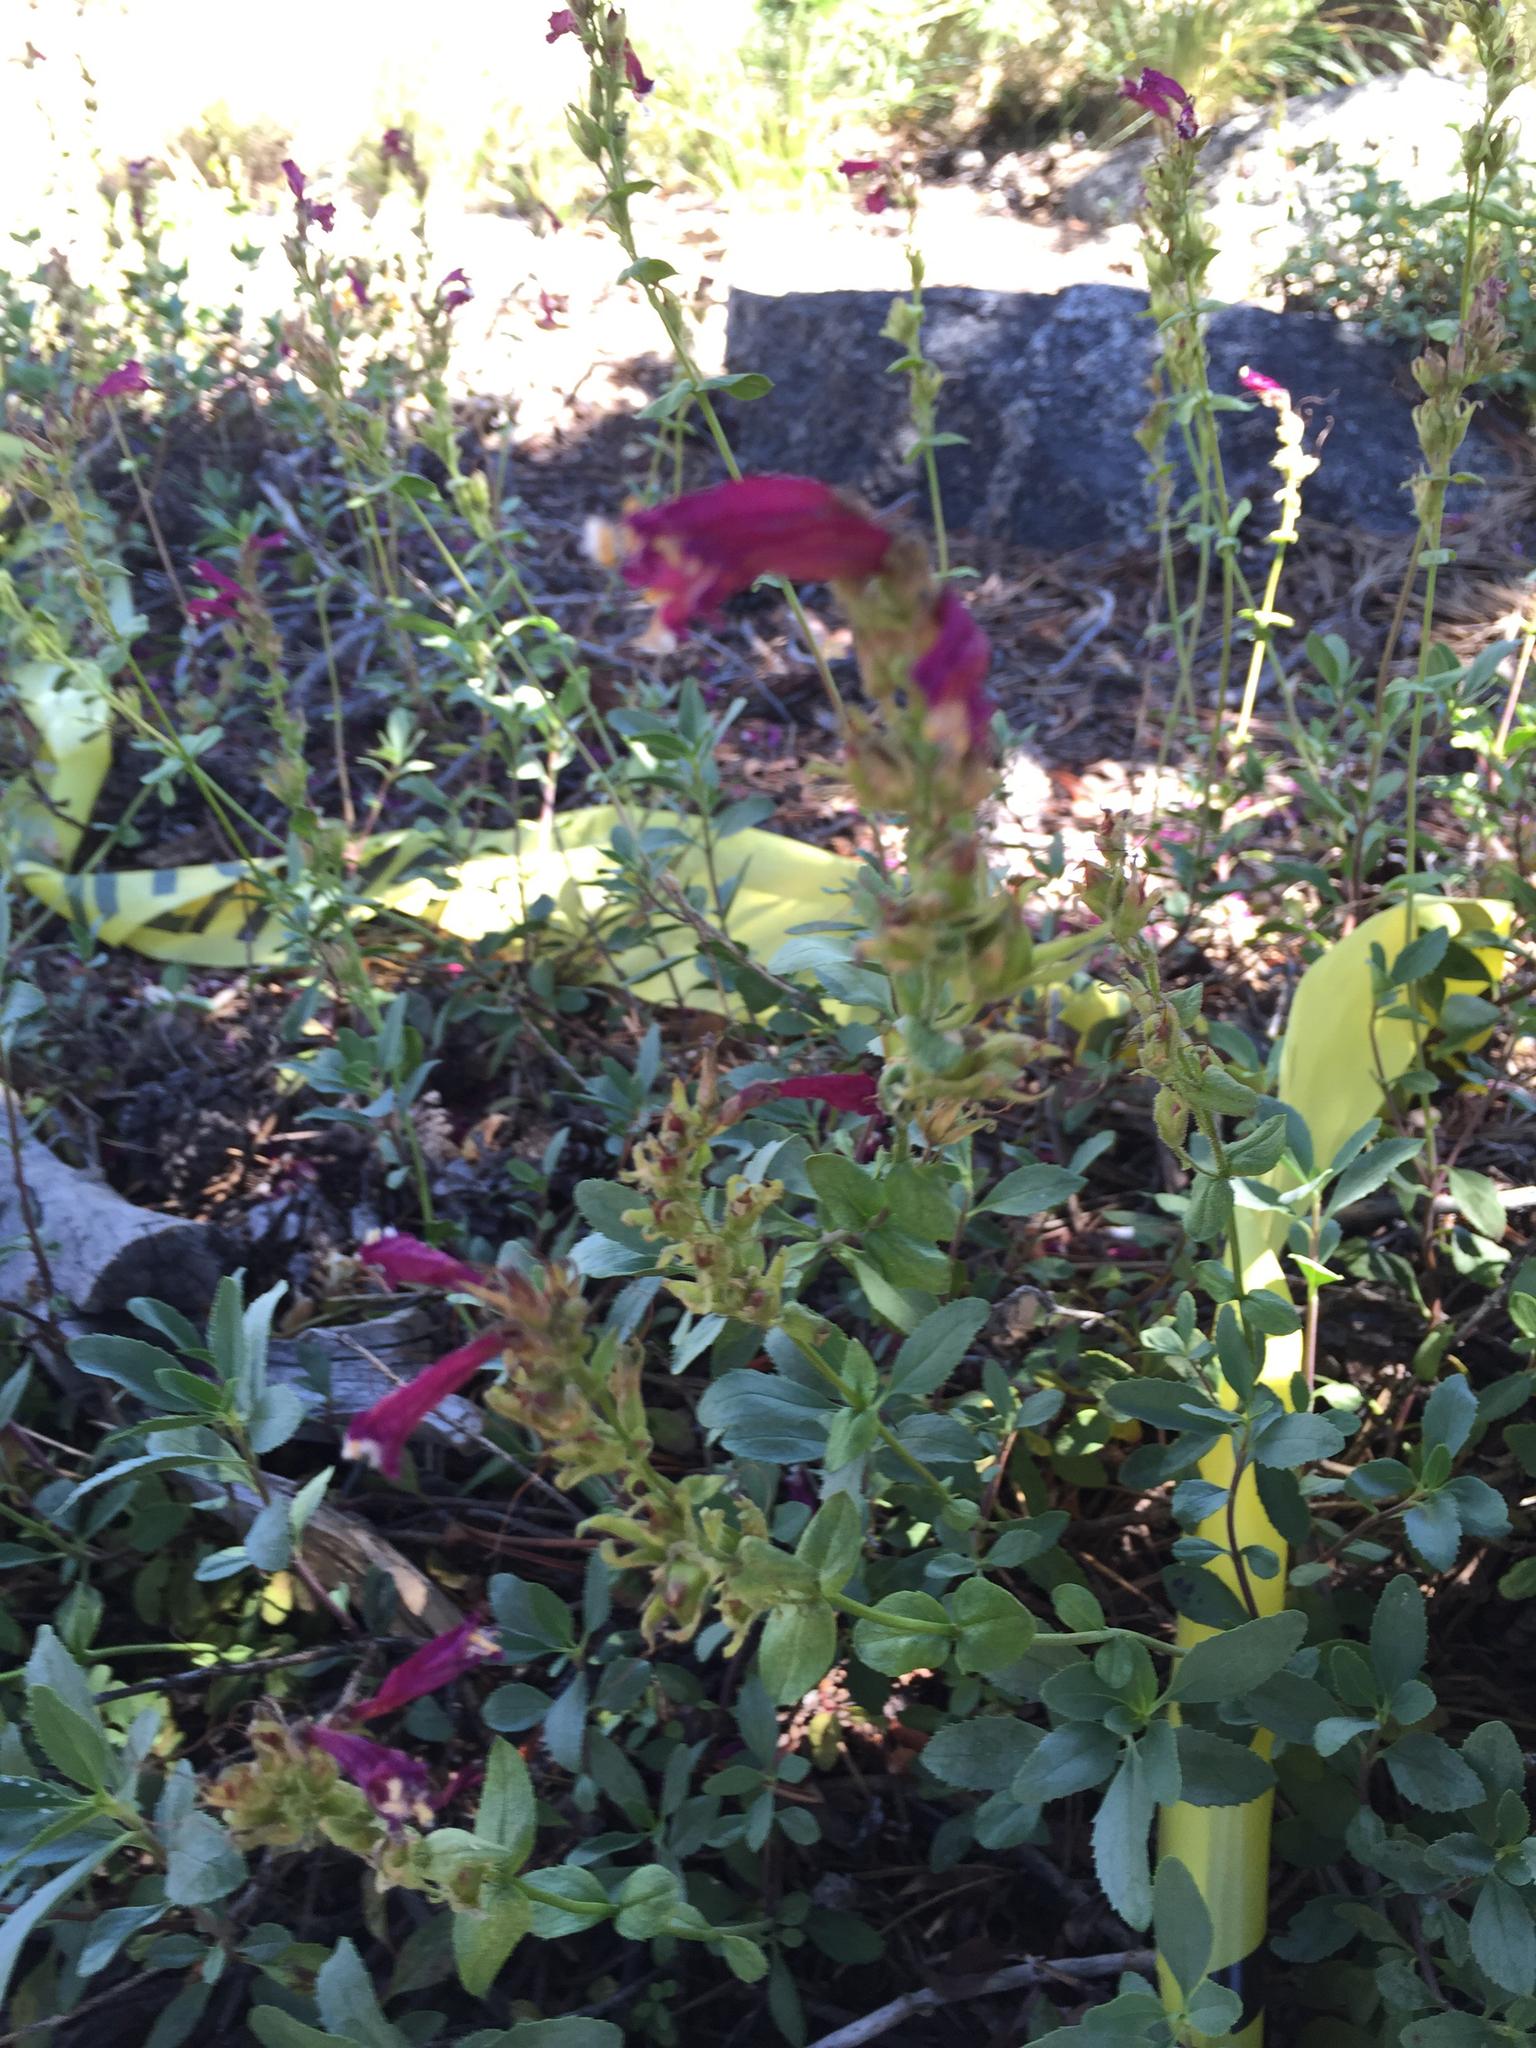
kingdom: Plantae
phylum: Tracheophyta
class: Magnoliopsida
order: Lamiales
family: Plantaginaceae
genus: Penstemon
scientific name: Penstemon newberryi
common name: Mountain-pride
